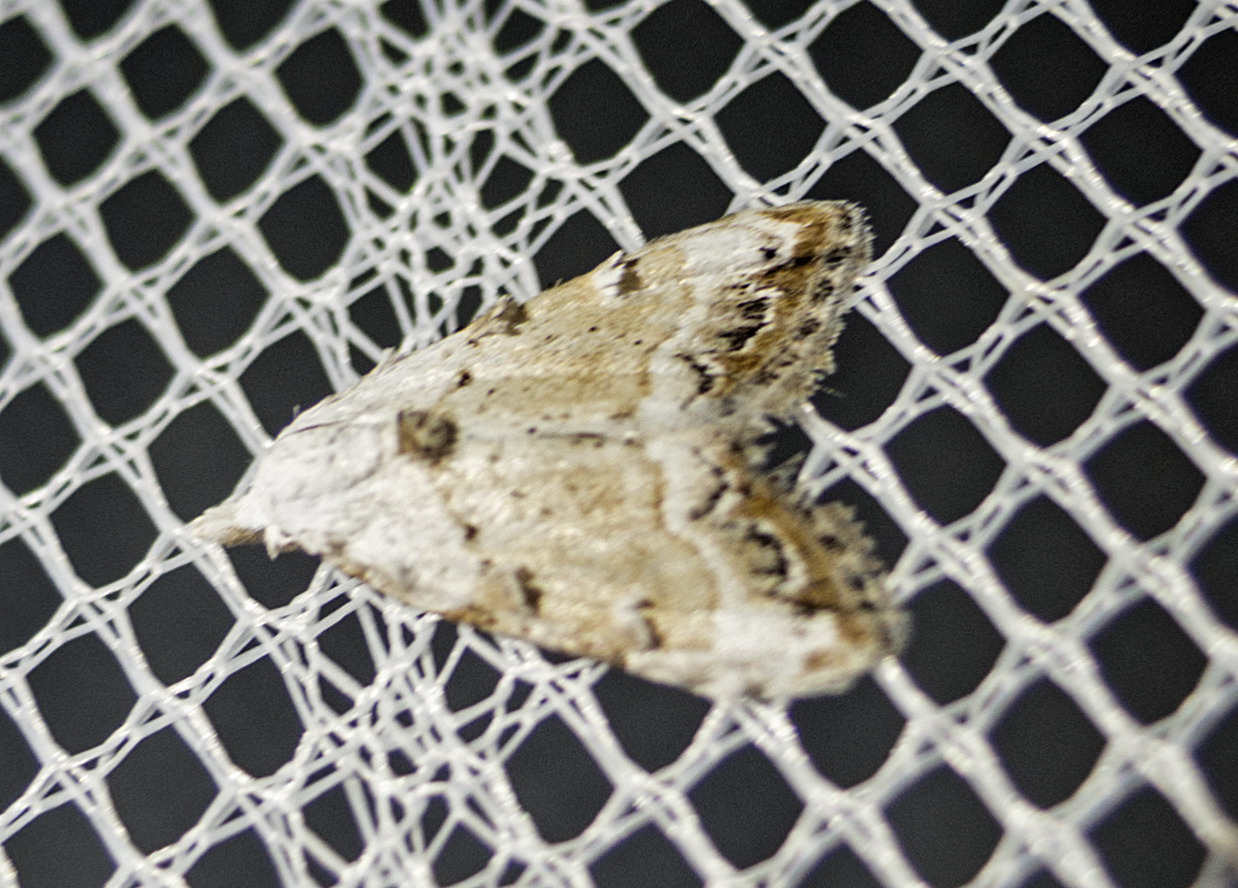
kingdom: Animalia
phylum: Arthropoda
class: Insecta
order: Lepidoptera
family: Nolidae
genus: Nola
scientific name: Nola chlamitulalis
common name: Jersey black arches
